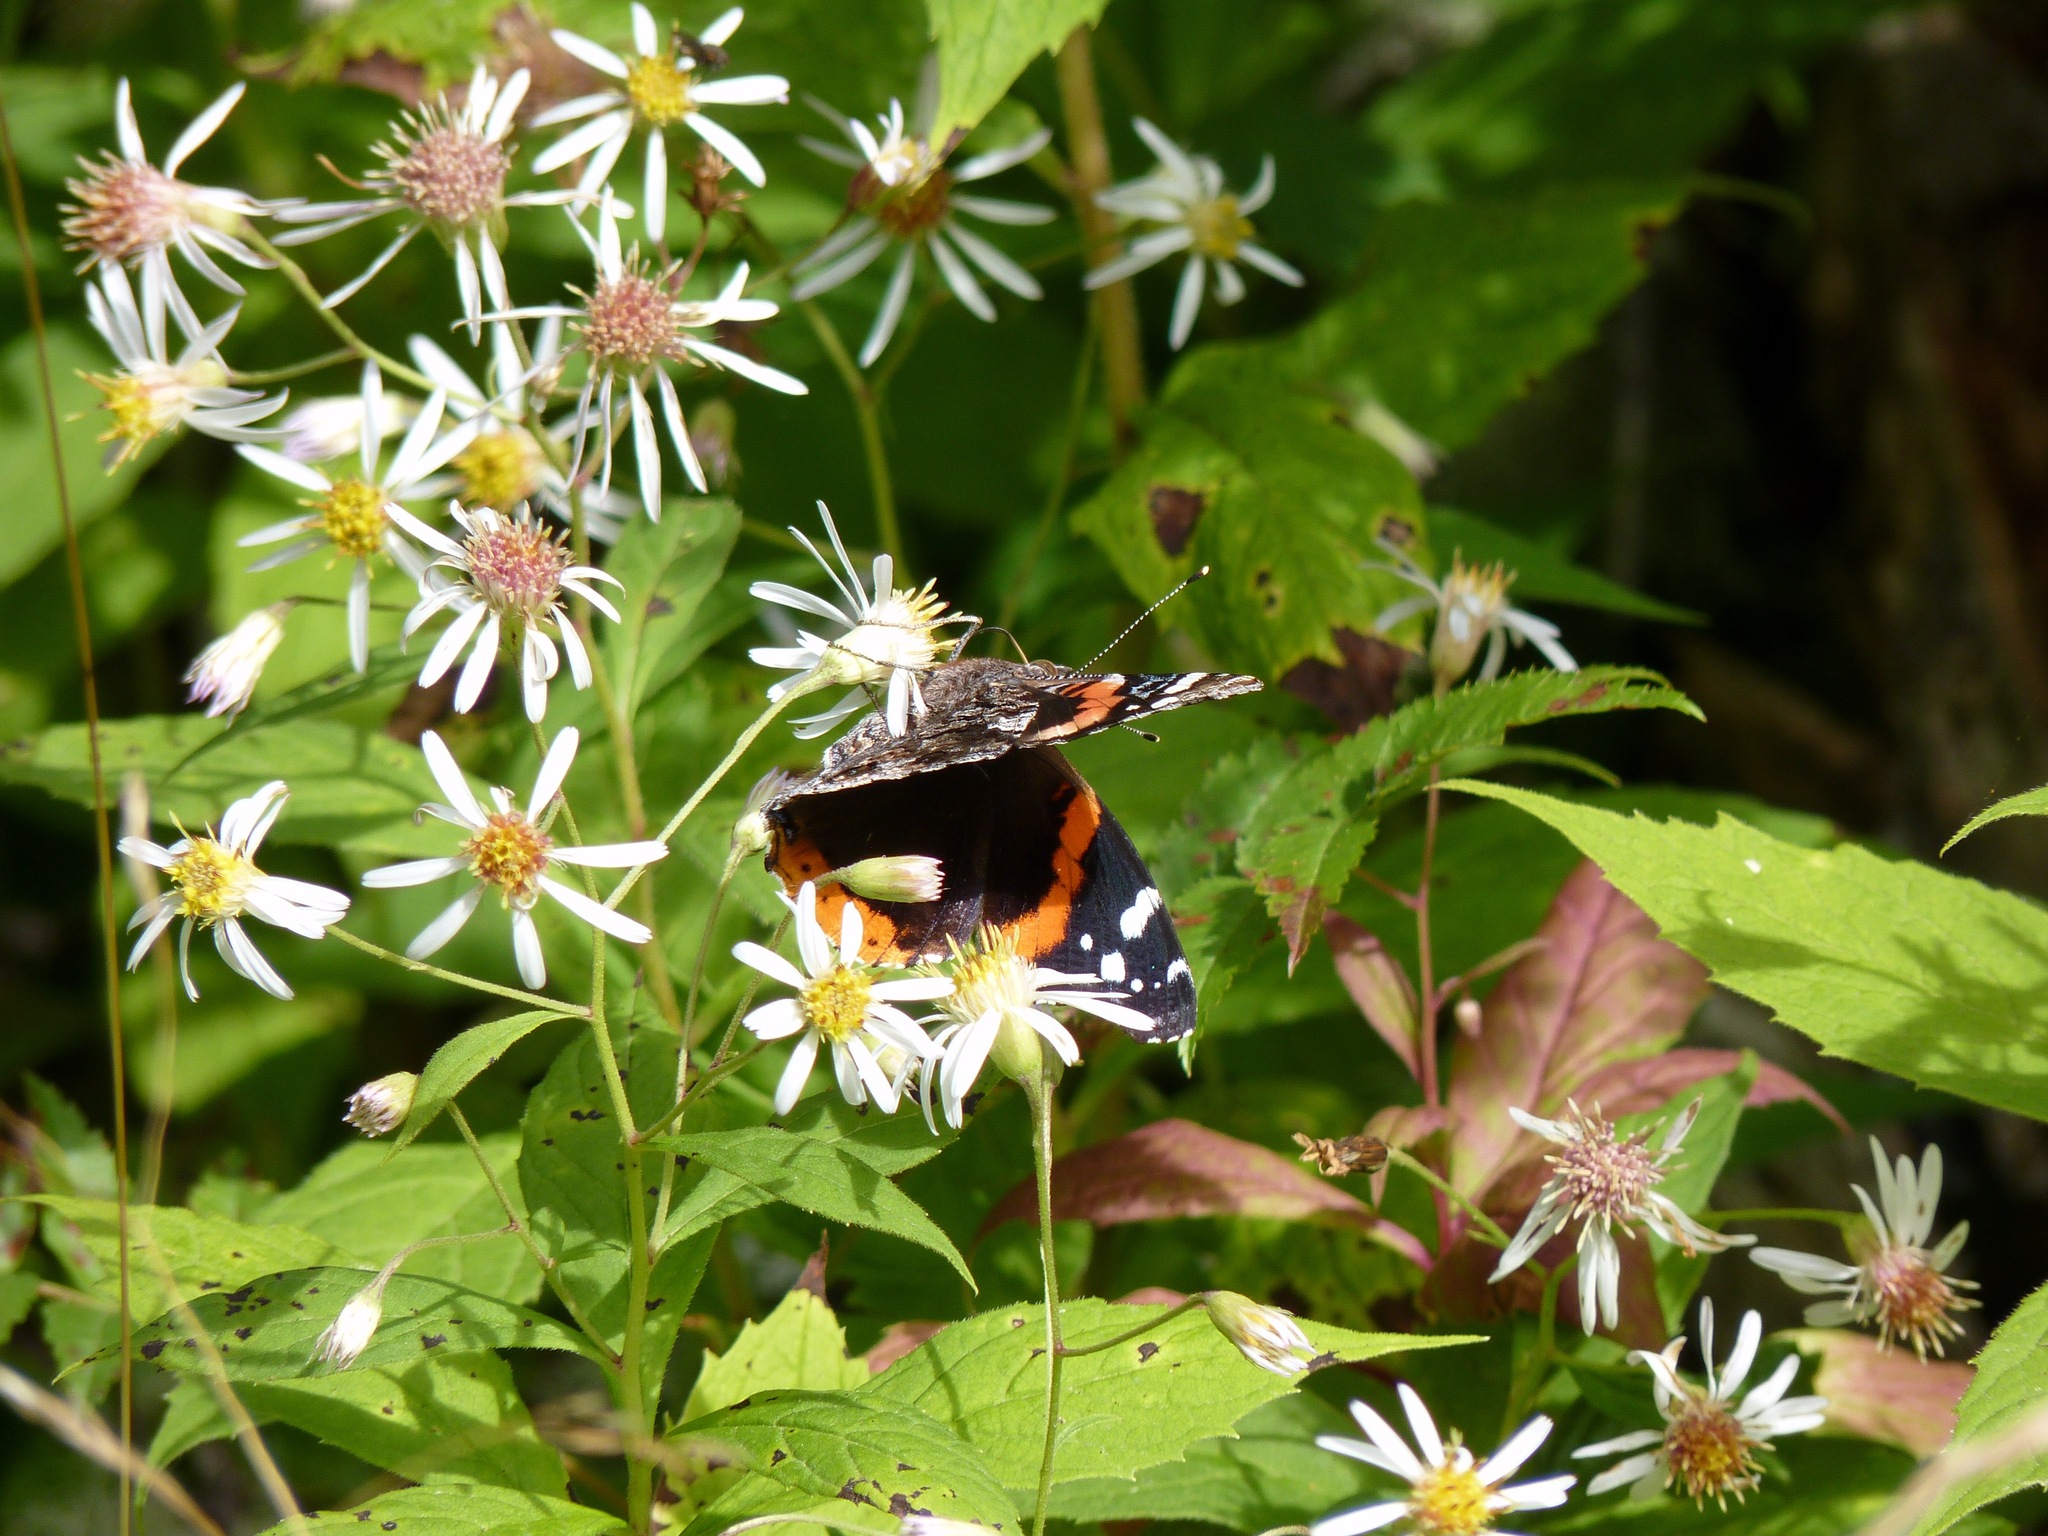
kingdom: Animalia
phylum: Arthropoda
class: Insecta
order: Lepidoptera
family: Nymphalidae
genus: Vanessa
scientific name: Vanessa atalanta
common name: Red admiral
